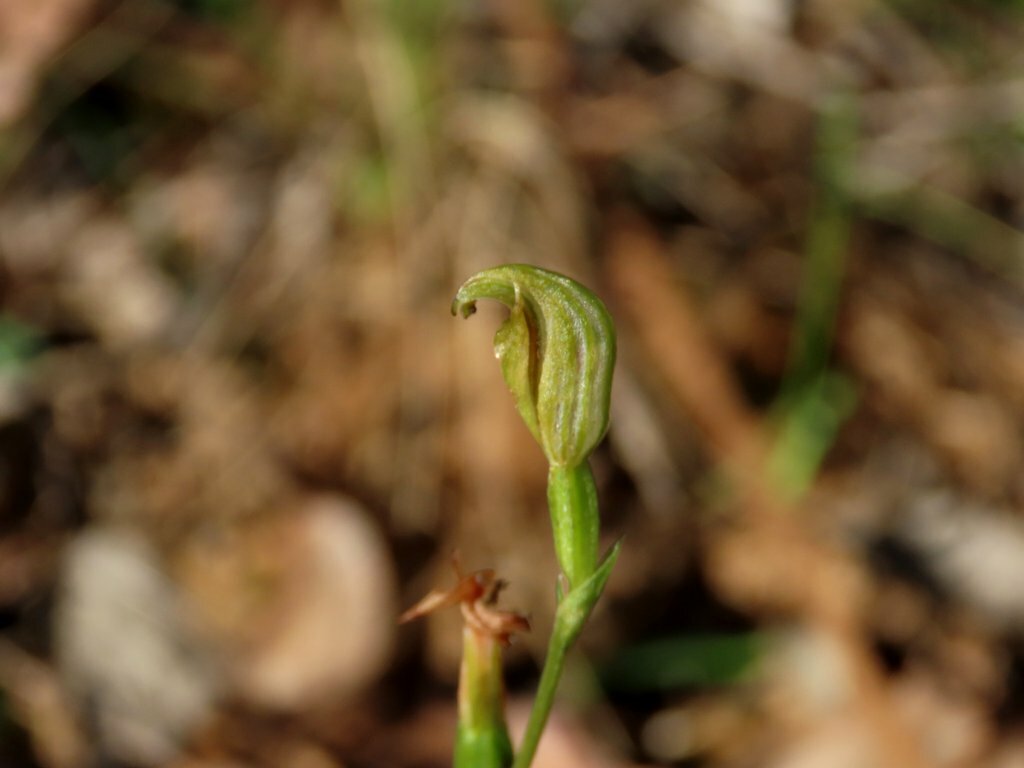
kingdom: Plantae
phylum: Tracheophyta
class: Liliopsida
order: Asparagales
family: Orchidaceae
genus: Pterostylis
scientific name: Pterostylis parviflora
